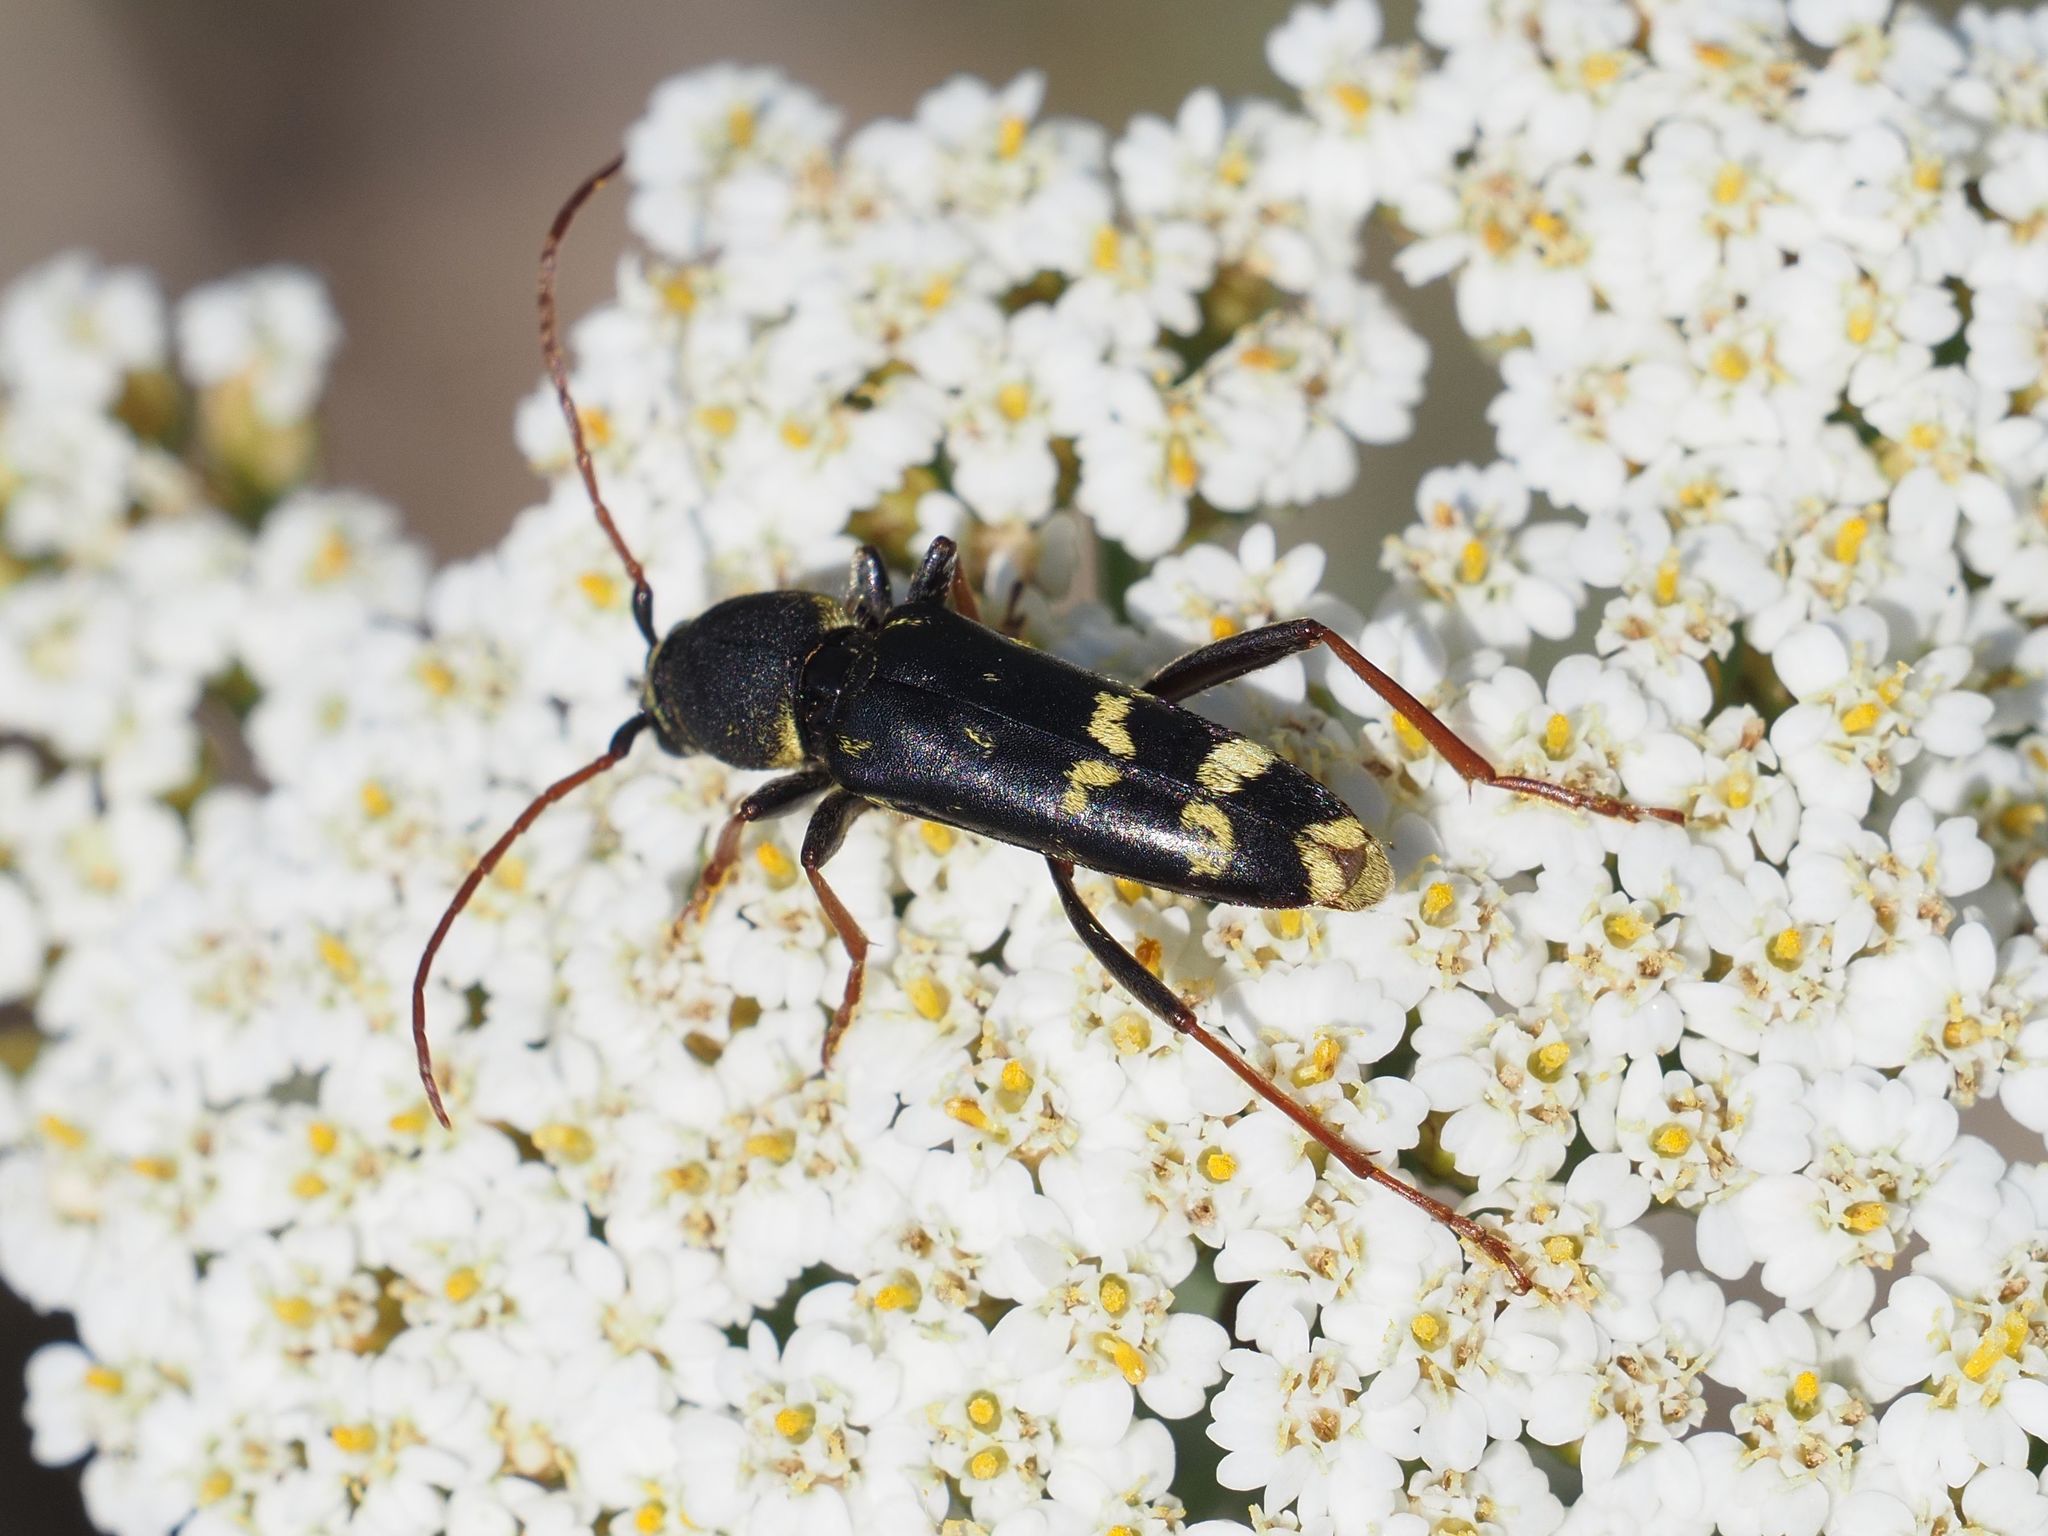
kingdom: Animalia
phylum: Arthropoda
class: Insecta
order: Coleoptera
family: Cerambycidae
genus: Plagionotus
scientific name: Plagionotus floralis
